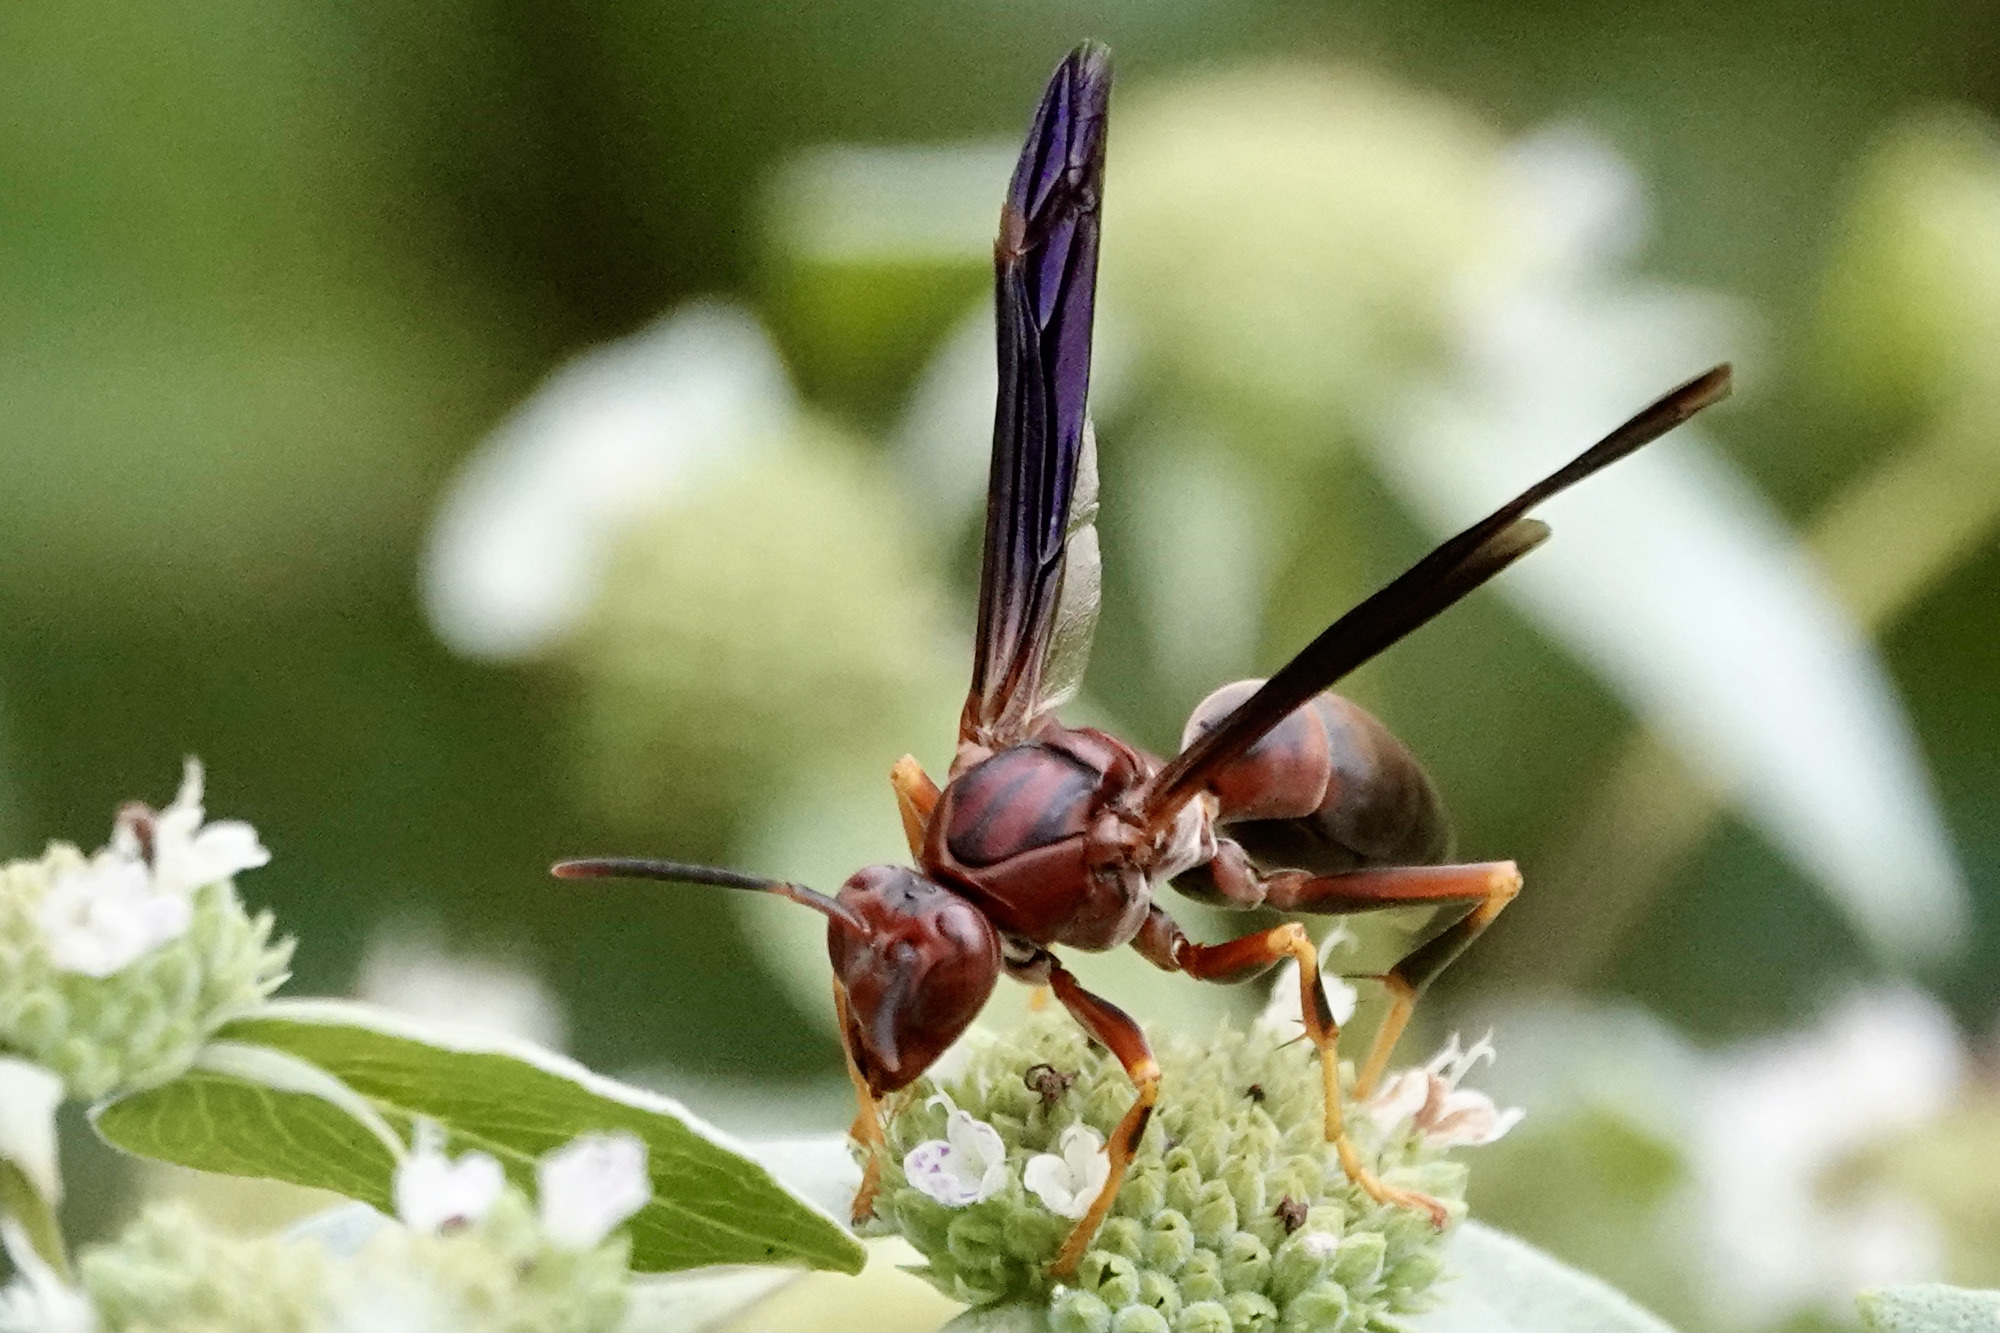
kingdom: Animalia
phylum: Arthropoda
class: Insecta
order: Hymenoptera
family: Eumenidae
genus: Polistes
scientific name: Polistes metricus
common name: Metric paper wasp
